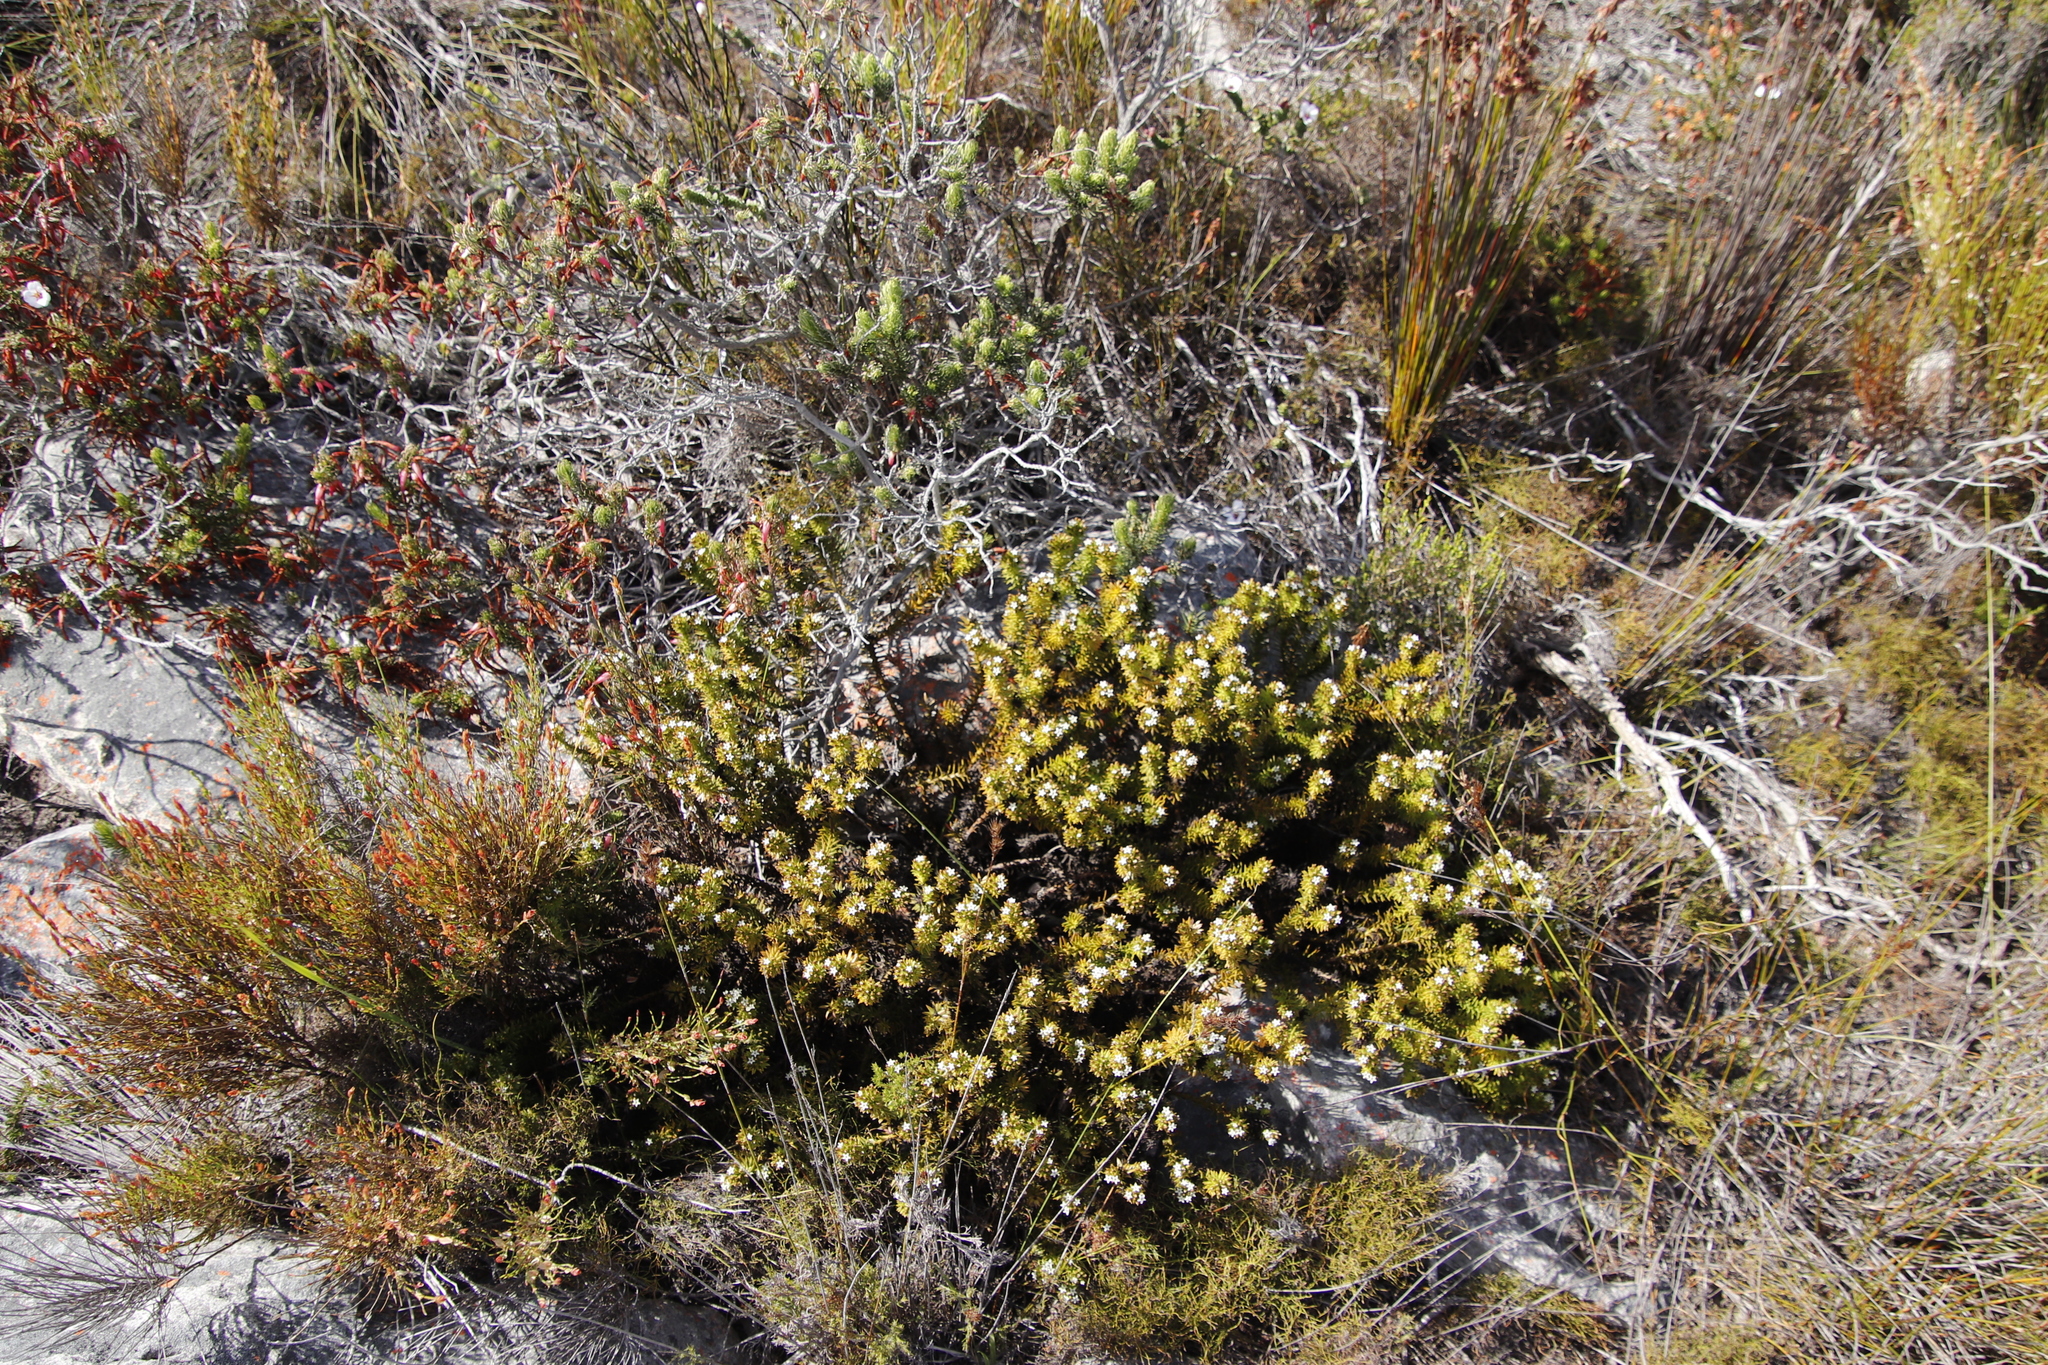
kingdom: Plantae
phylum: Tracheophyta
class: Magnoliopsida
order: Santalales
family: Thesiaceae
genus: Thesium
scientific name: Thesium viridifolium
